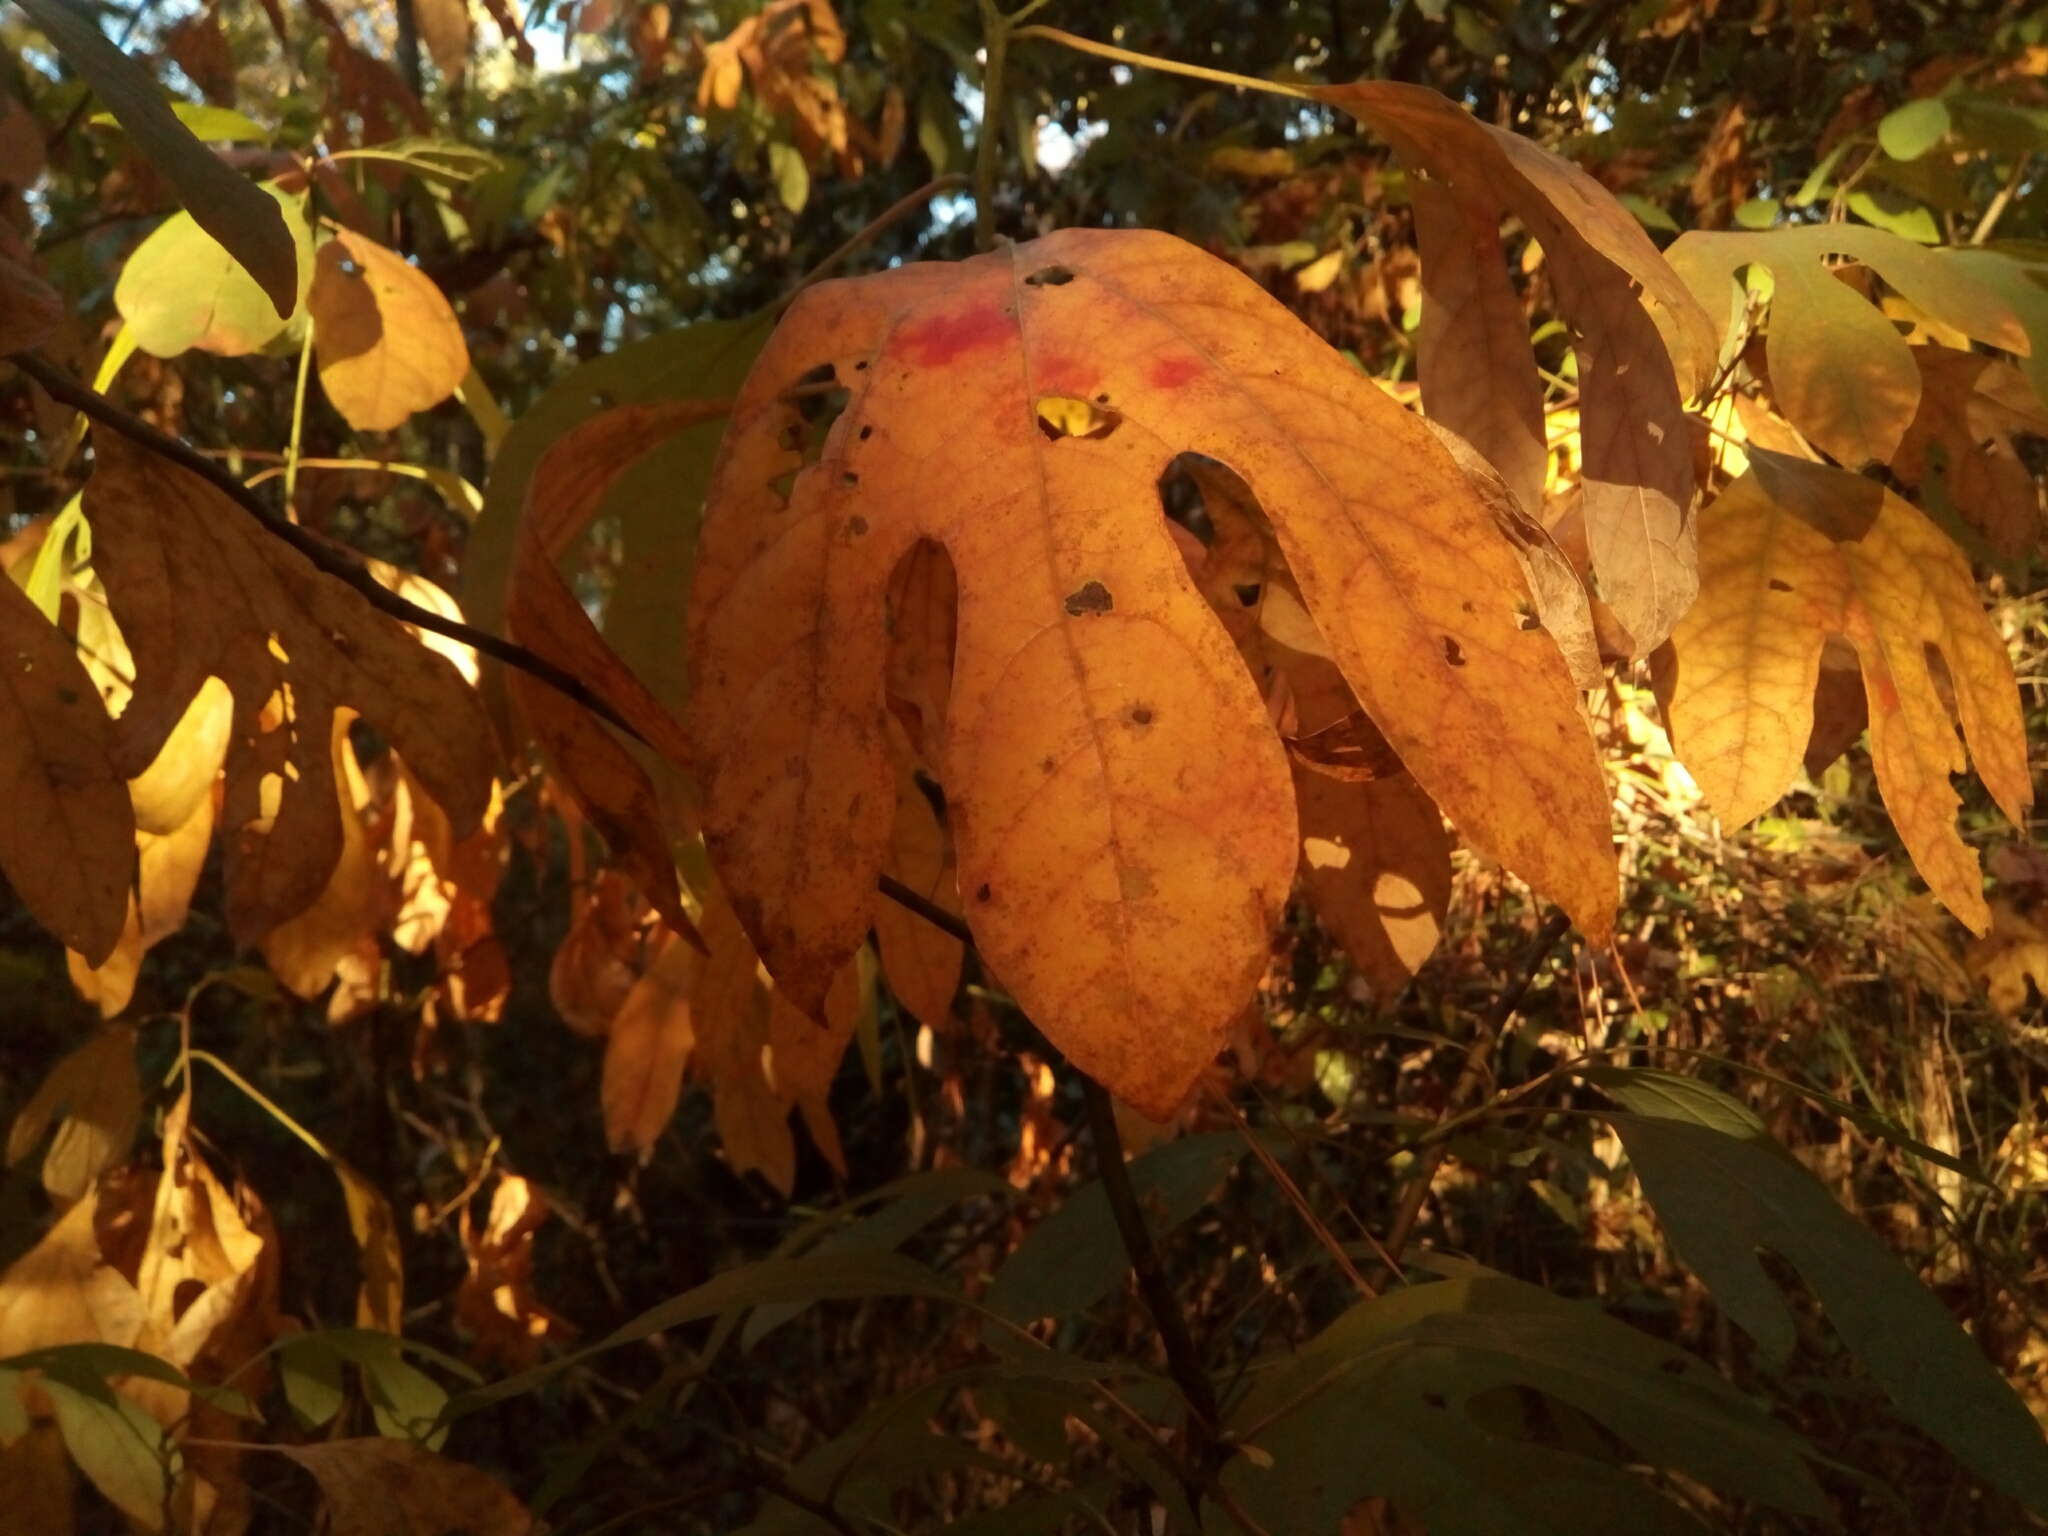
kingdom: Plantae
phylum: Tracheophyta
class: Magnoliopsida
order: Laurales
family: Lauraceae
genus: Sassafras
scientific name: Sassafras albidum
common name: Sassafras
